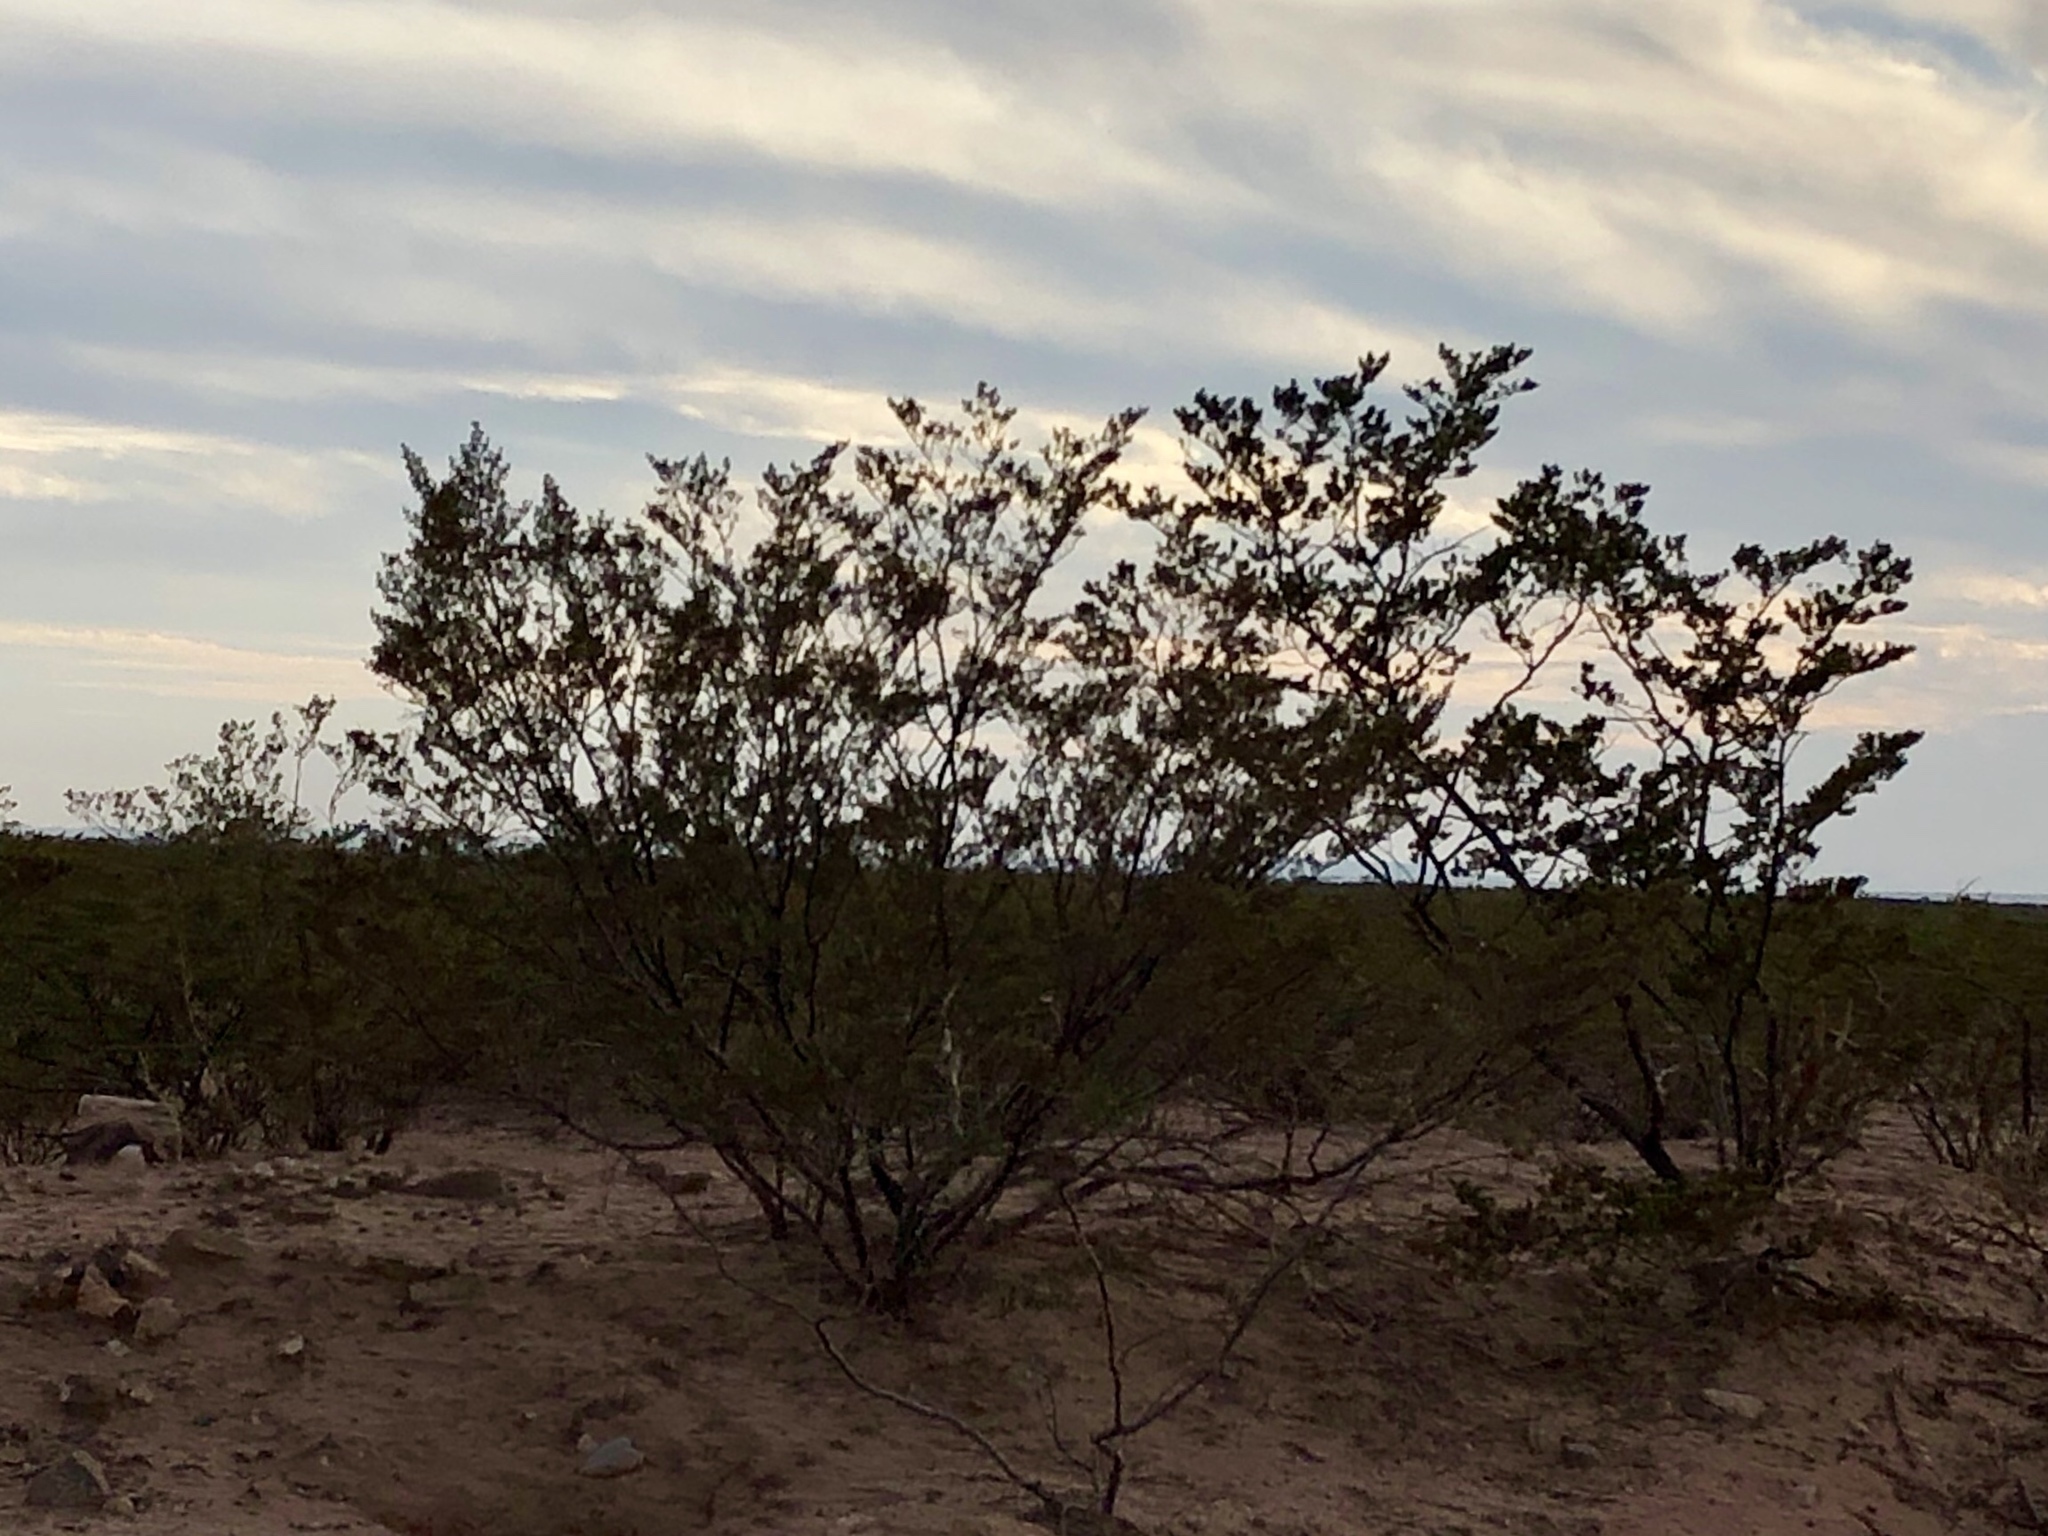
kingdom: Plantae
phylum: Tracheophyta
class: Magnoliopsida
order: Zygophyllales
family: Zygophyllaceae
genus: Larrea
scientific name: Larrea tridentata
